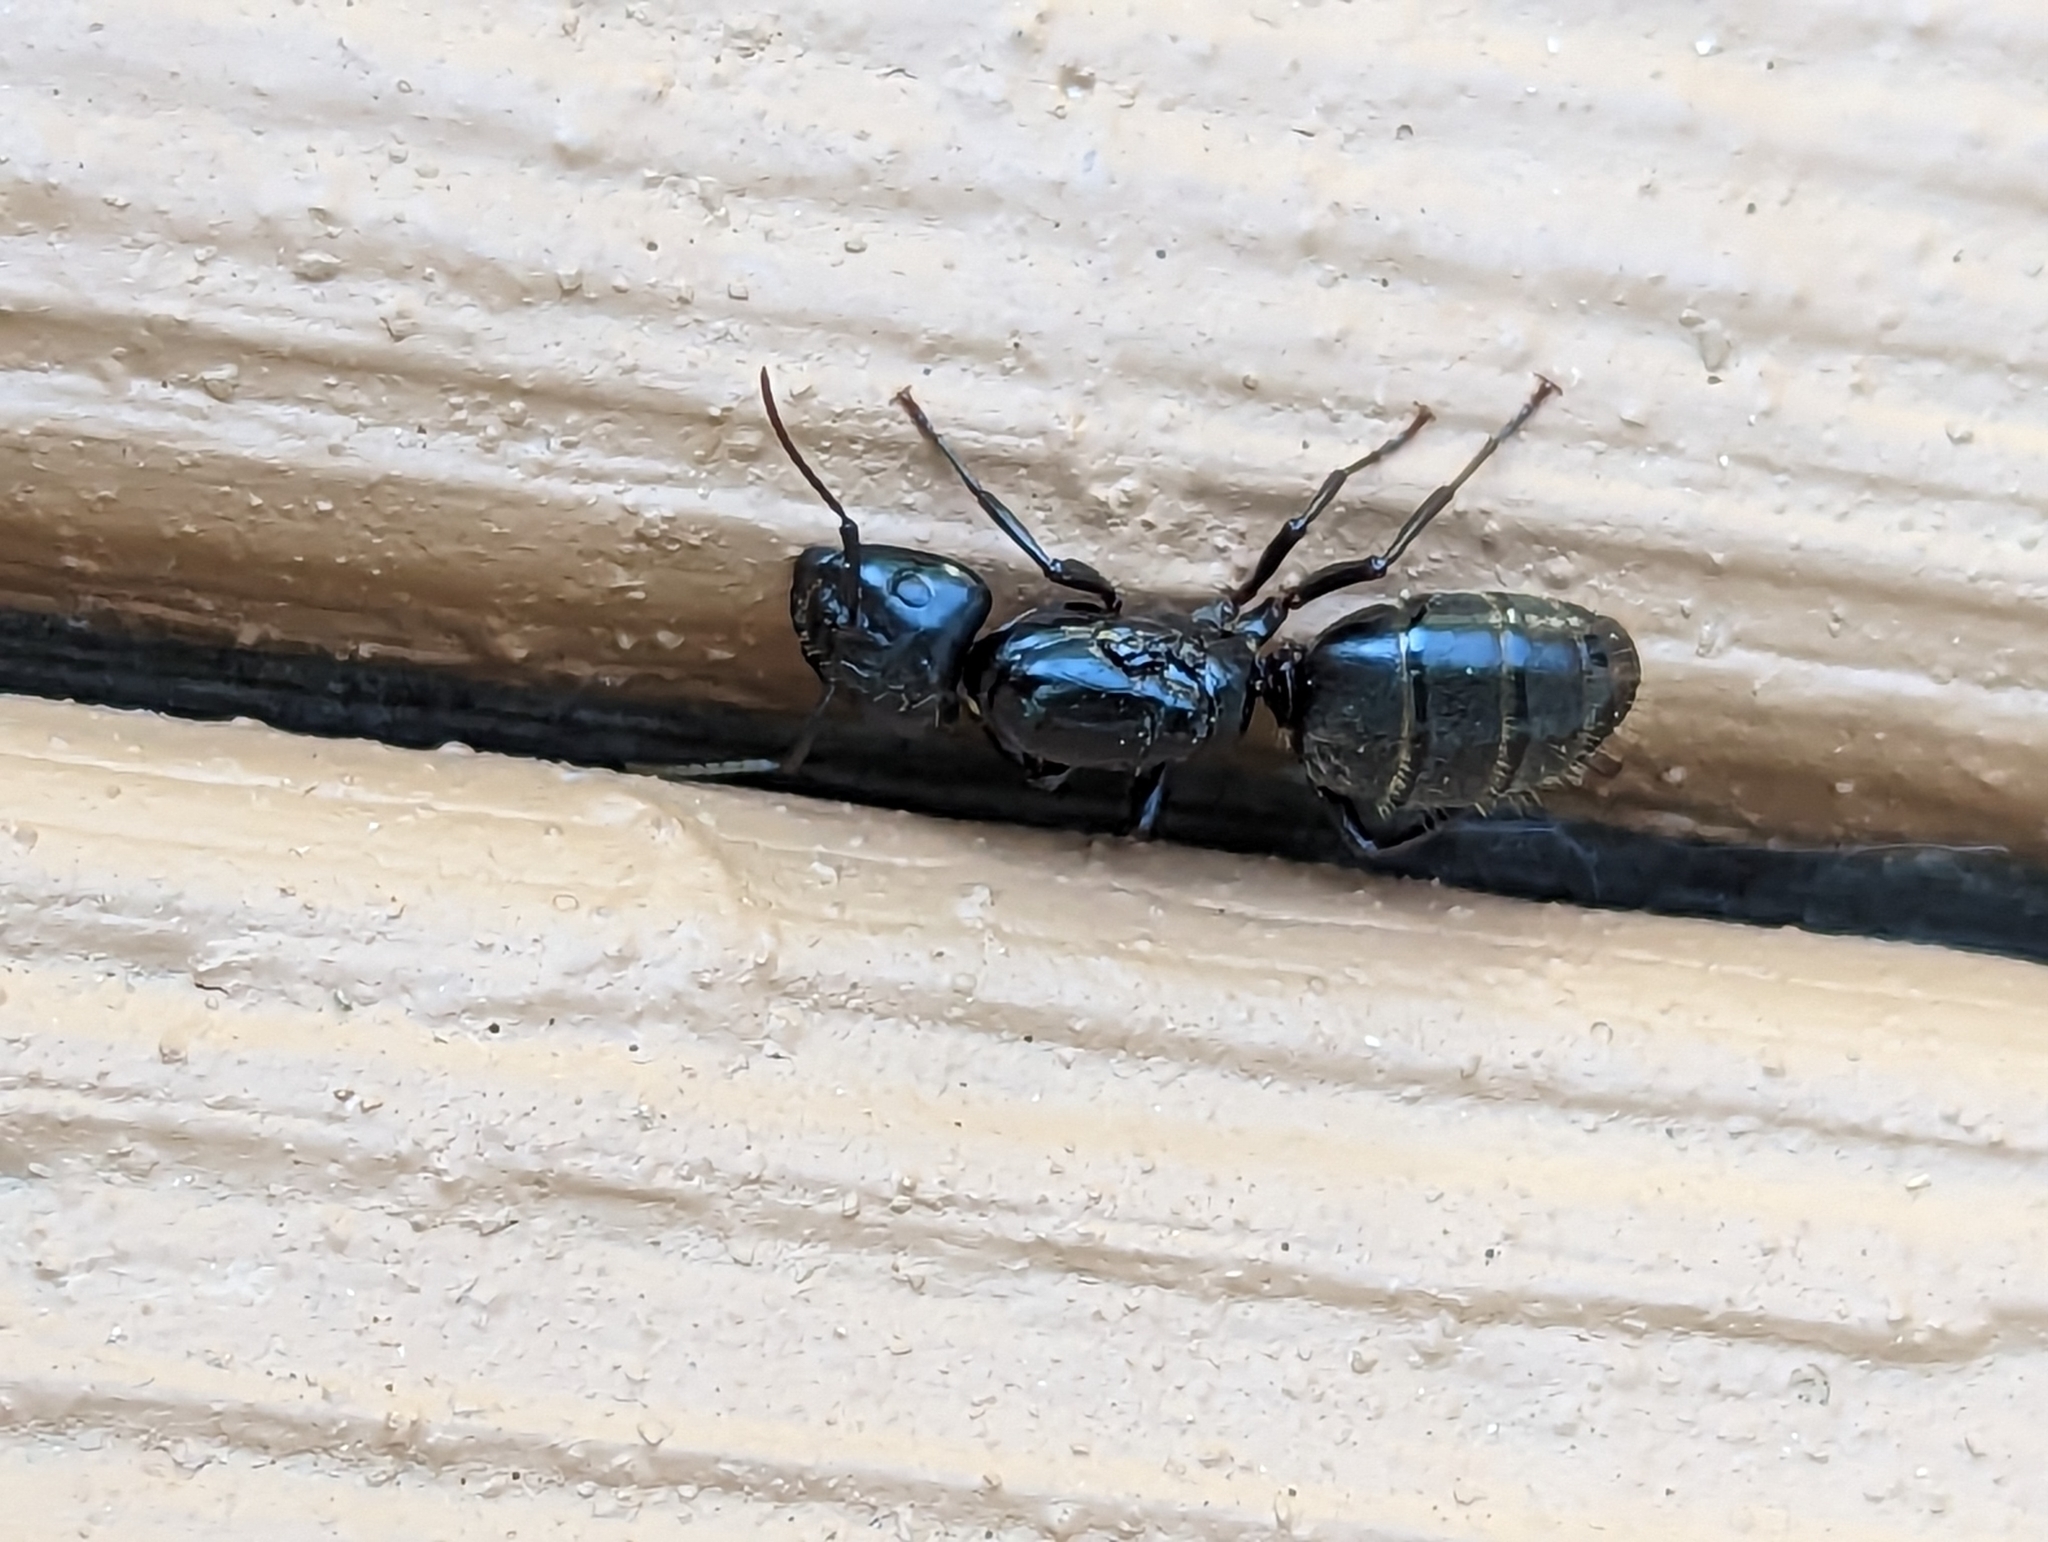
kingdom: Animalia
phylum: Arthropoda
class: Insecta
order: Hymenoptera
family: Formicidae
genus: Camponotus
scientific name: Camponotus pennsylvanicus
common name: Black carpenter ant
